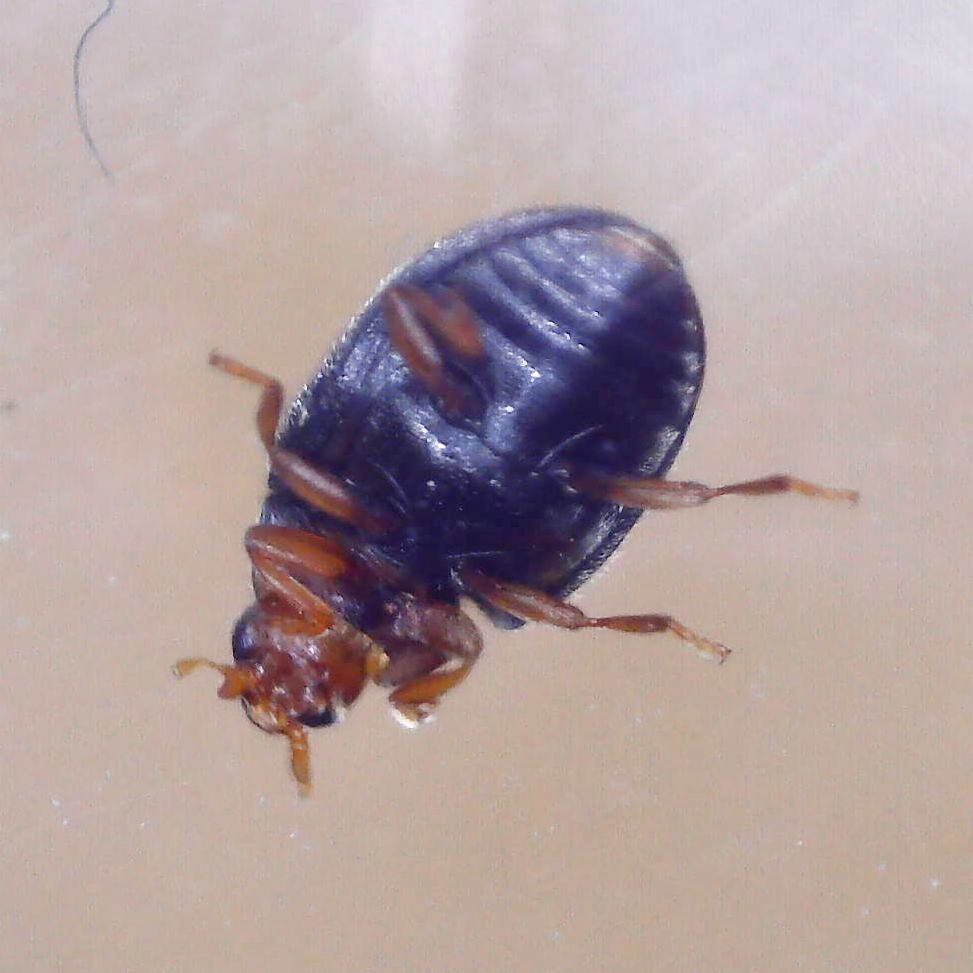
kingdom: Animalia
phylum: Arthropoda
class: Insecta
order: Coleoptera
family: Coccinellidae
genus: Scymnus
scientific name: Scymnus haemorrhoidalis
